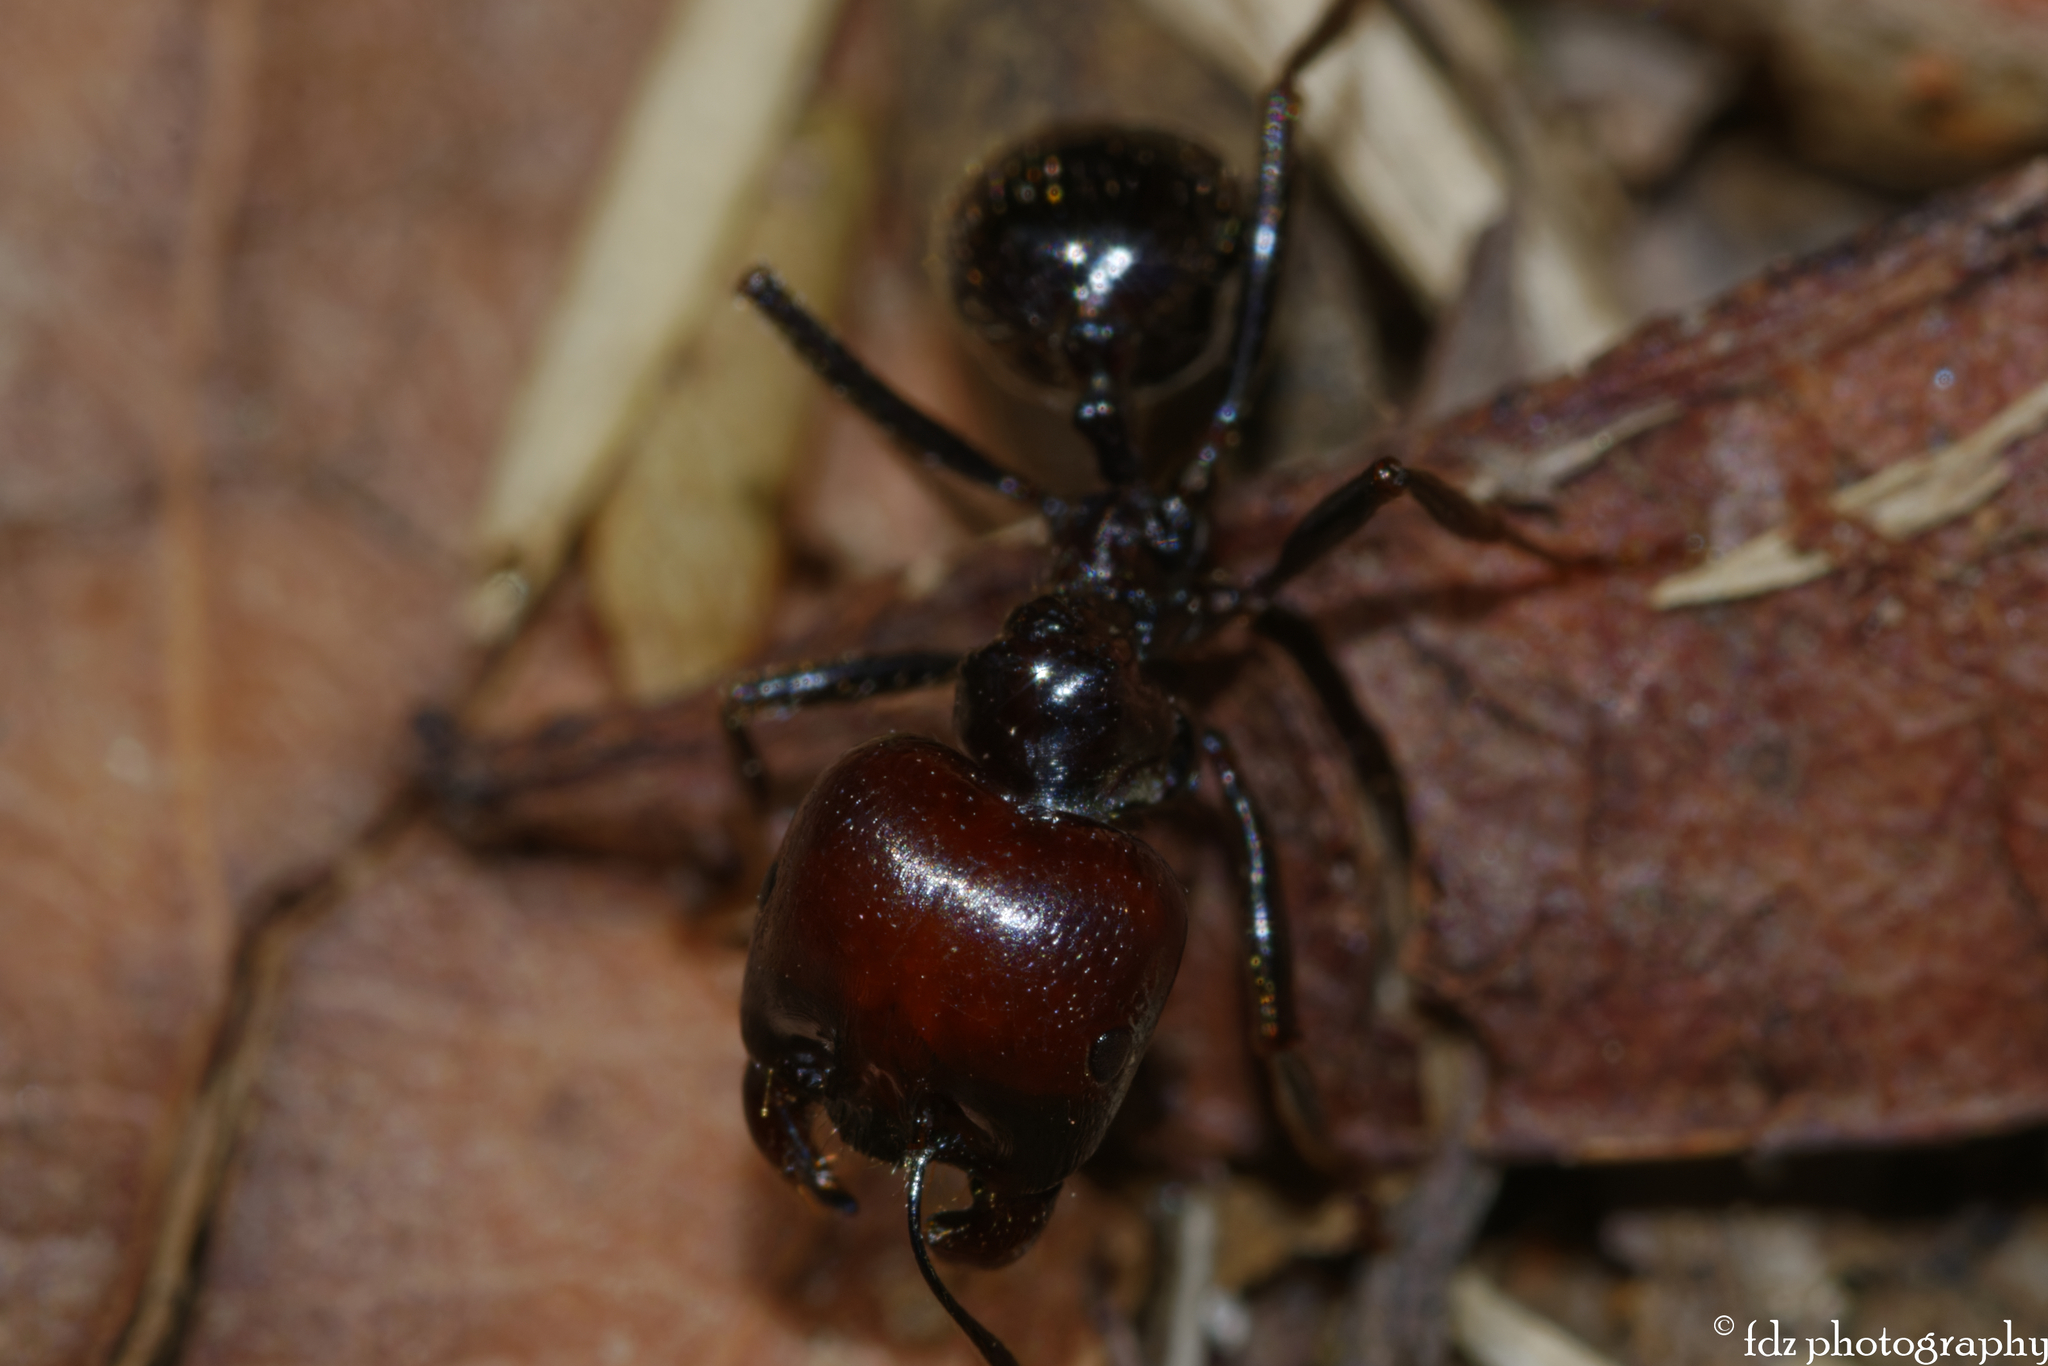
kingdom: Animalia
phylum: Arthropoda
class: Insecta
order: Hymenoptera
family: Formicidae
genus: Messor
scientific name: Messor barbarus
